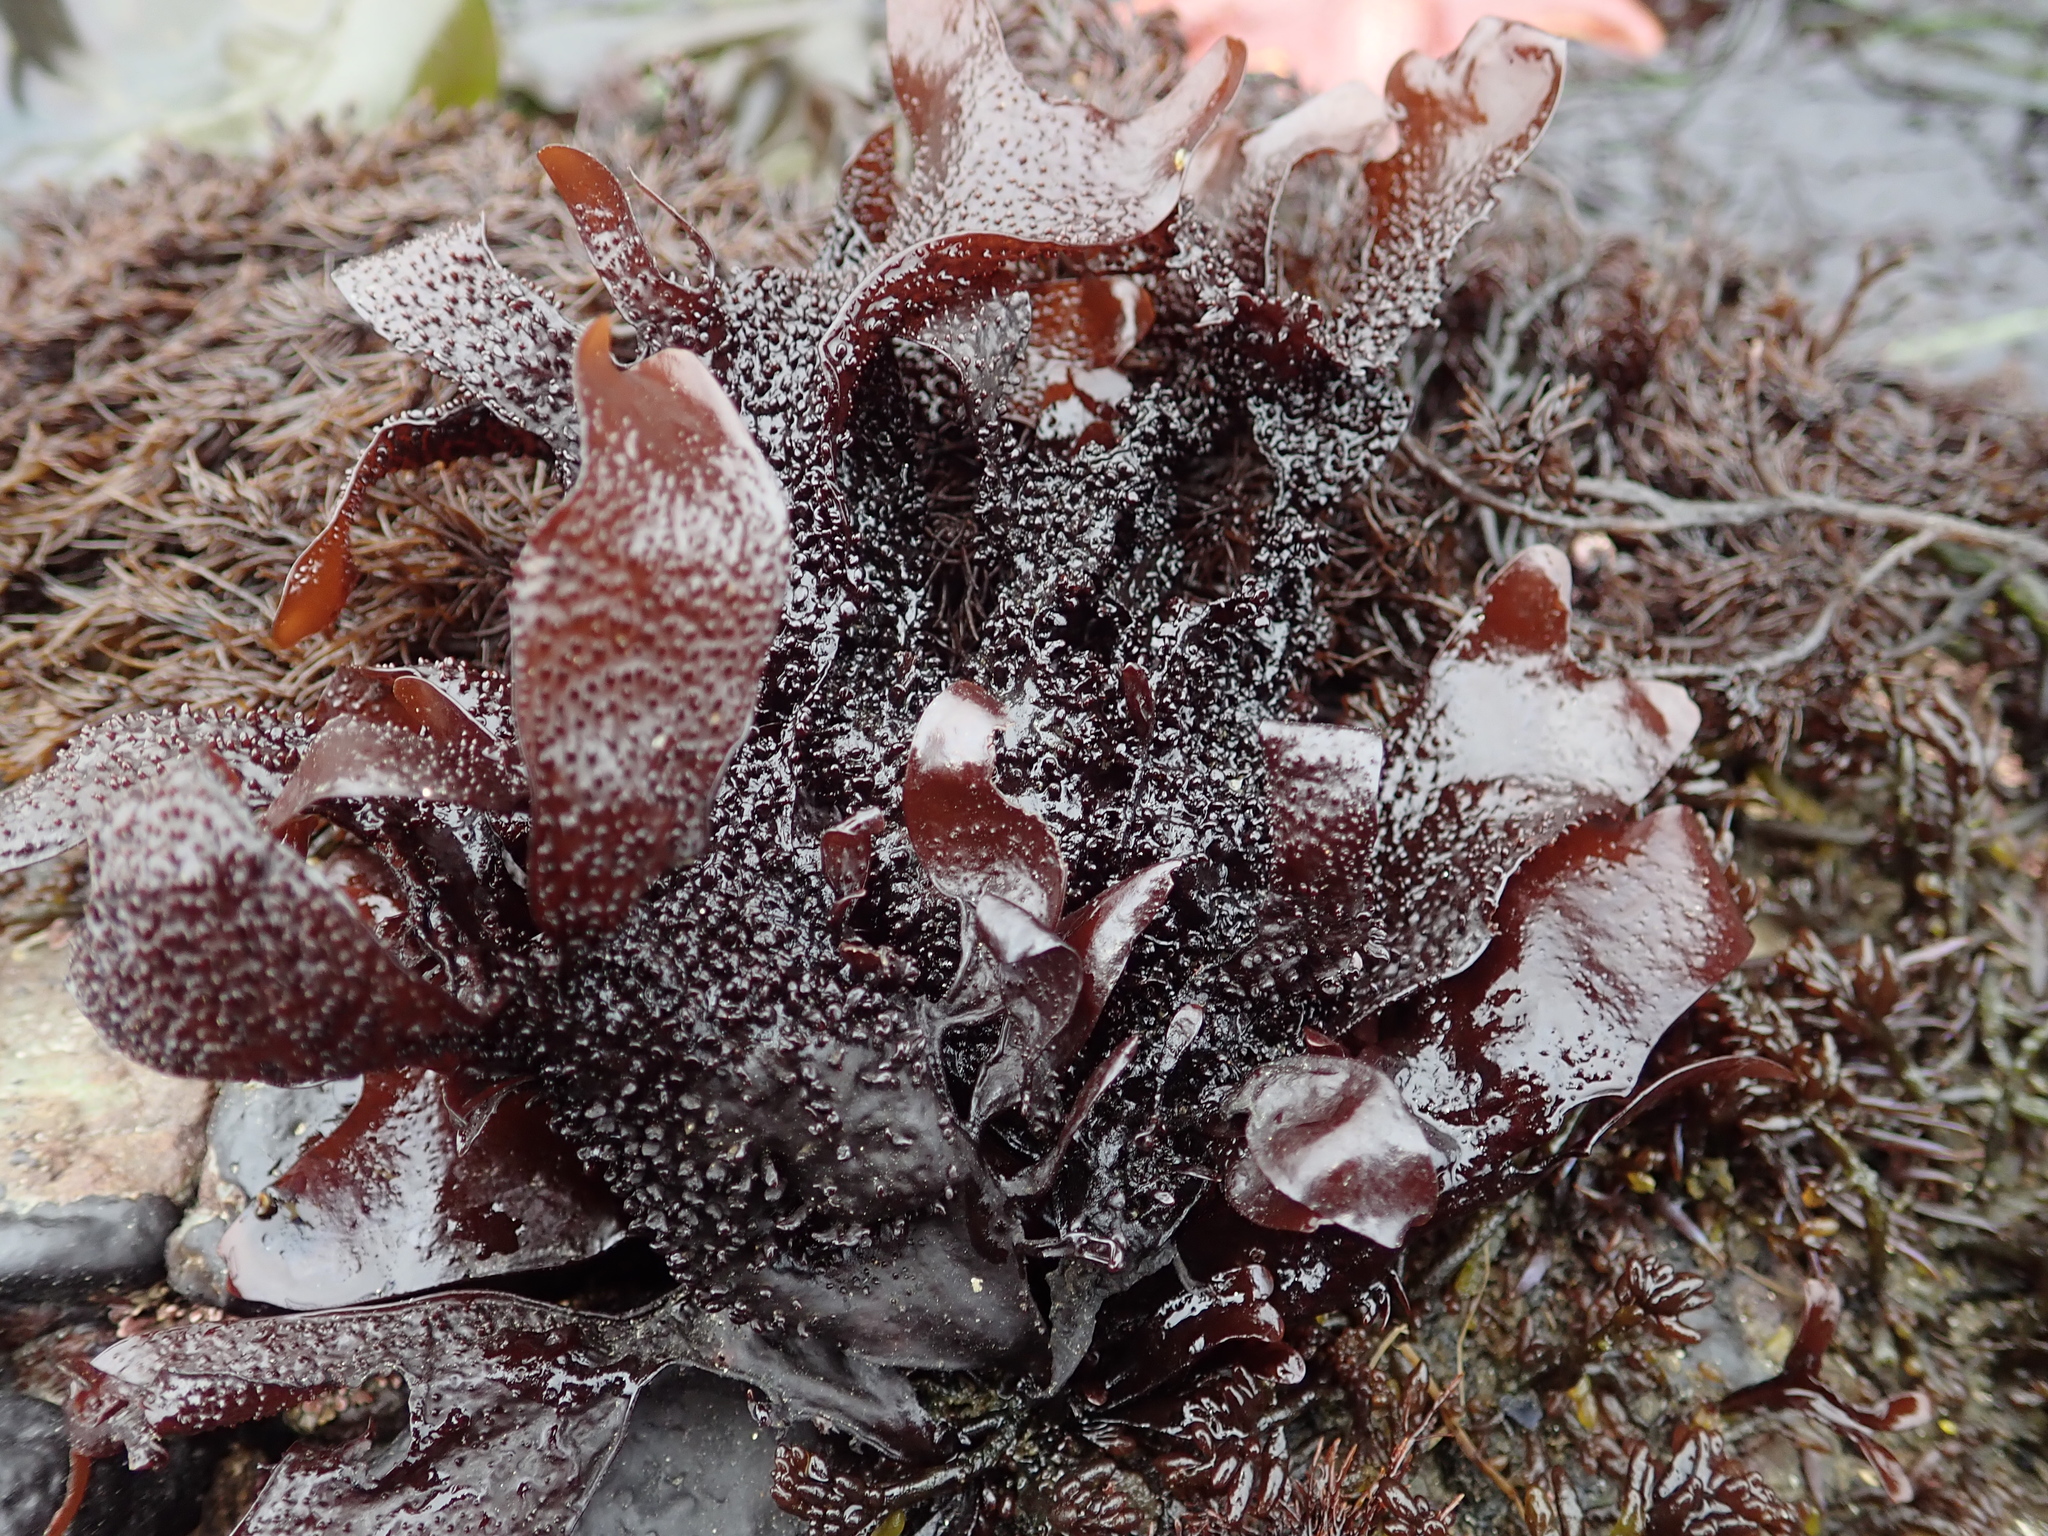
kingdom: Plantae
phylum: Rhodophyta
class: Florideophyceae
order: Gigartinales
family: Phyllophoraceae
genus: Mastocarpus
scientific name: Mastocarpus papillatus
